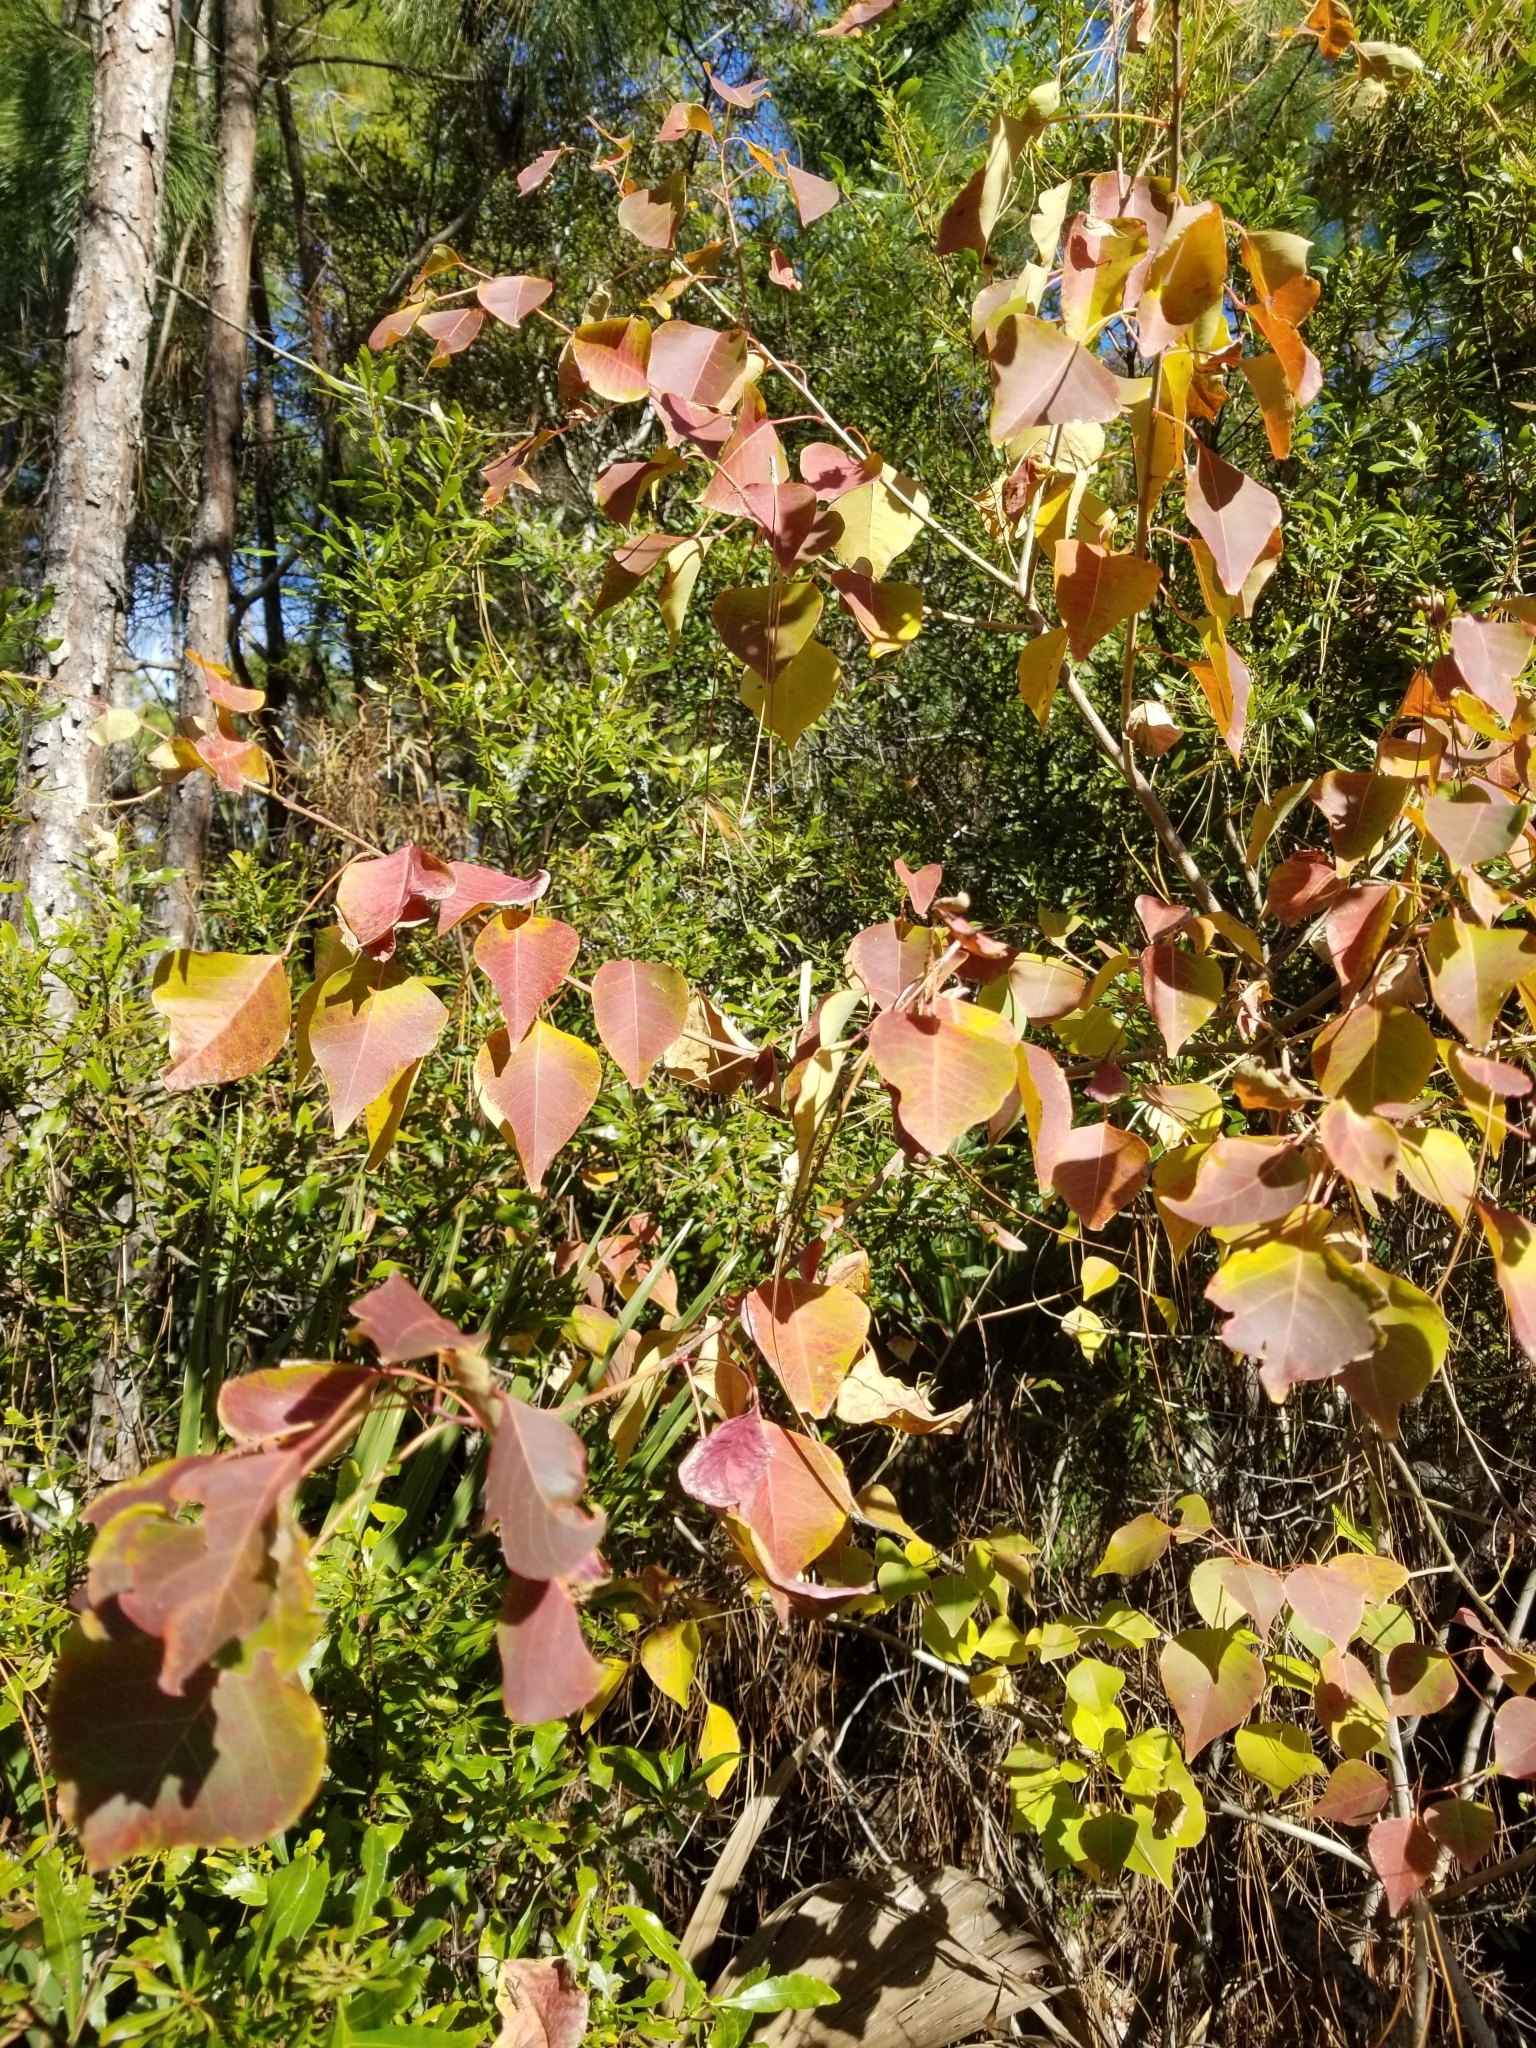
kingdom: Plantae
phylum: Tracheophyta
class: Magnoliopsida
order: Malpighiales
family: Euphorbiaceae
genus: Triadica
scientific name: Triadica sebifera
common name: Chinese tallow
